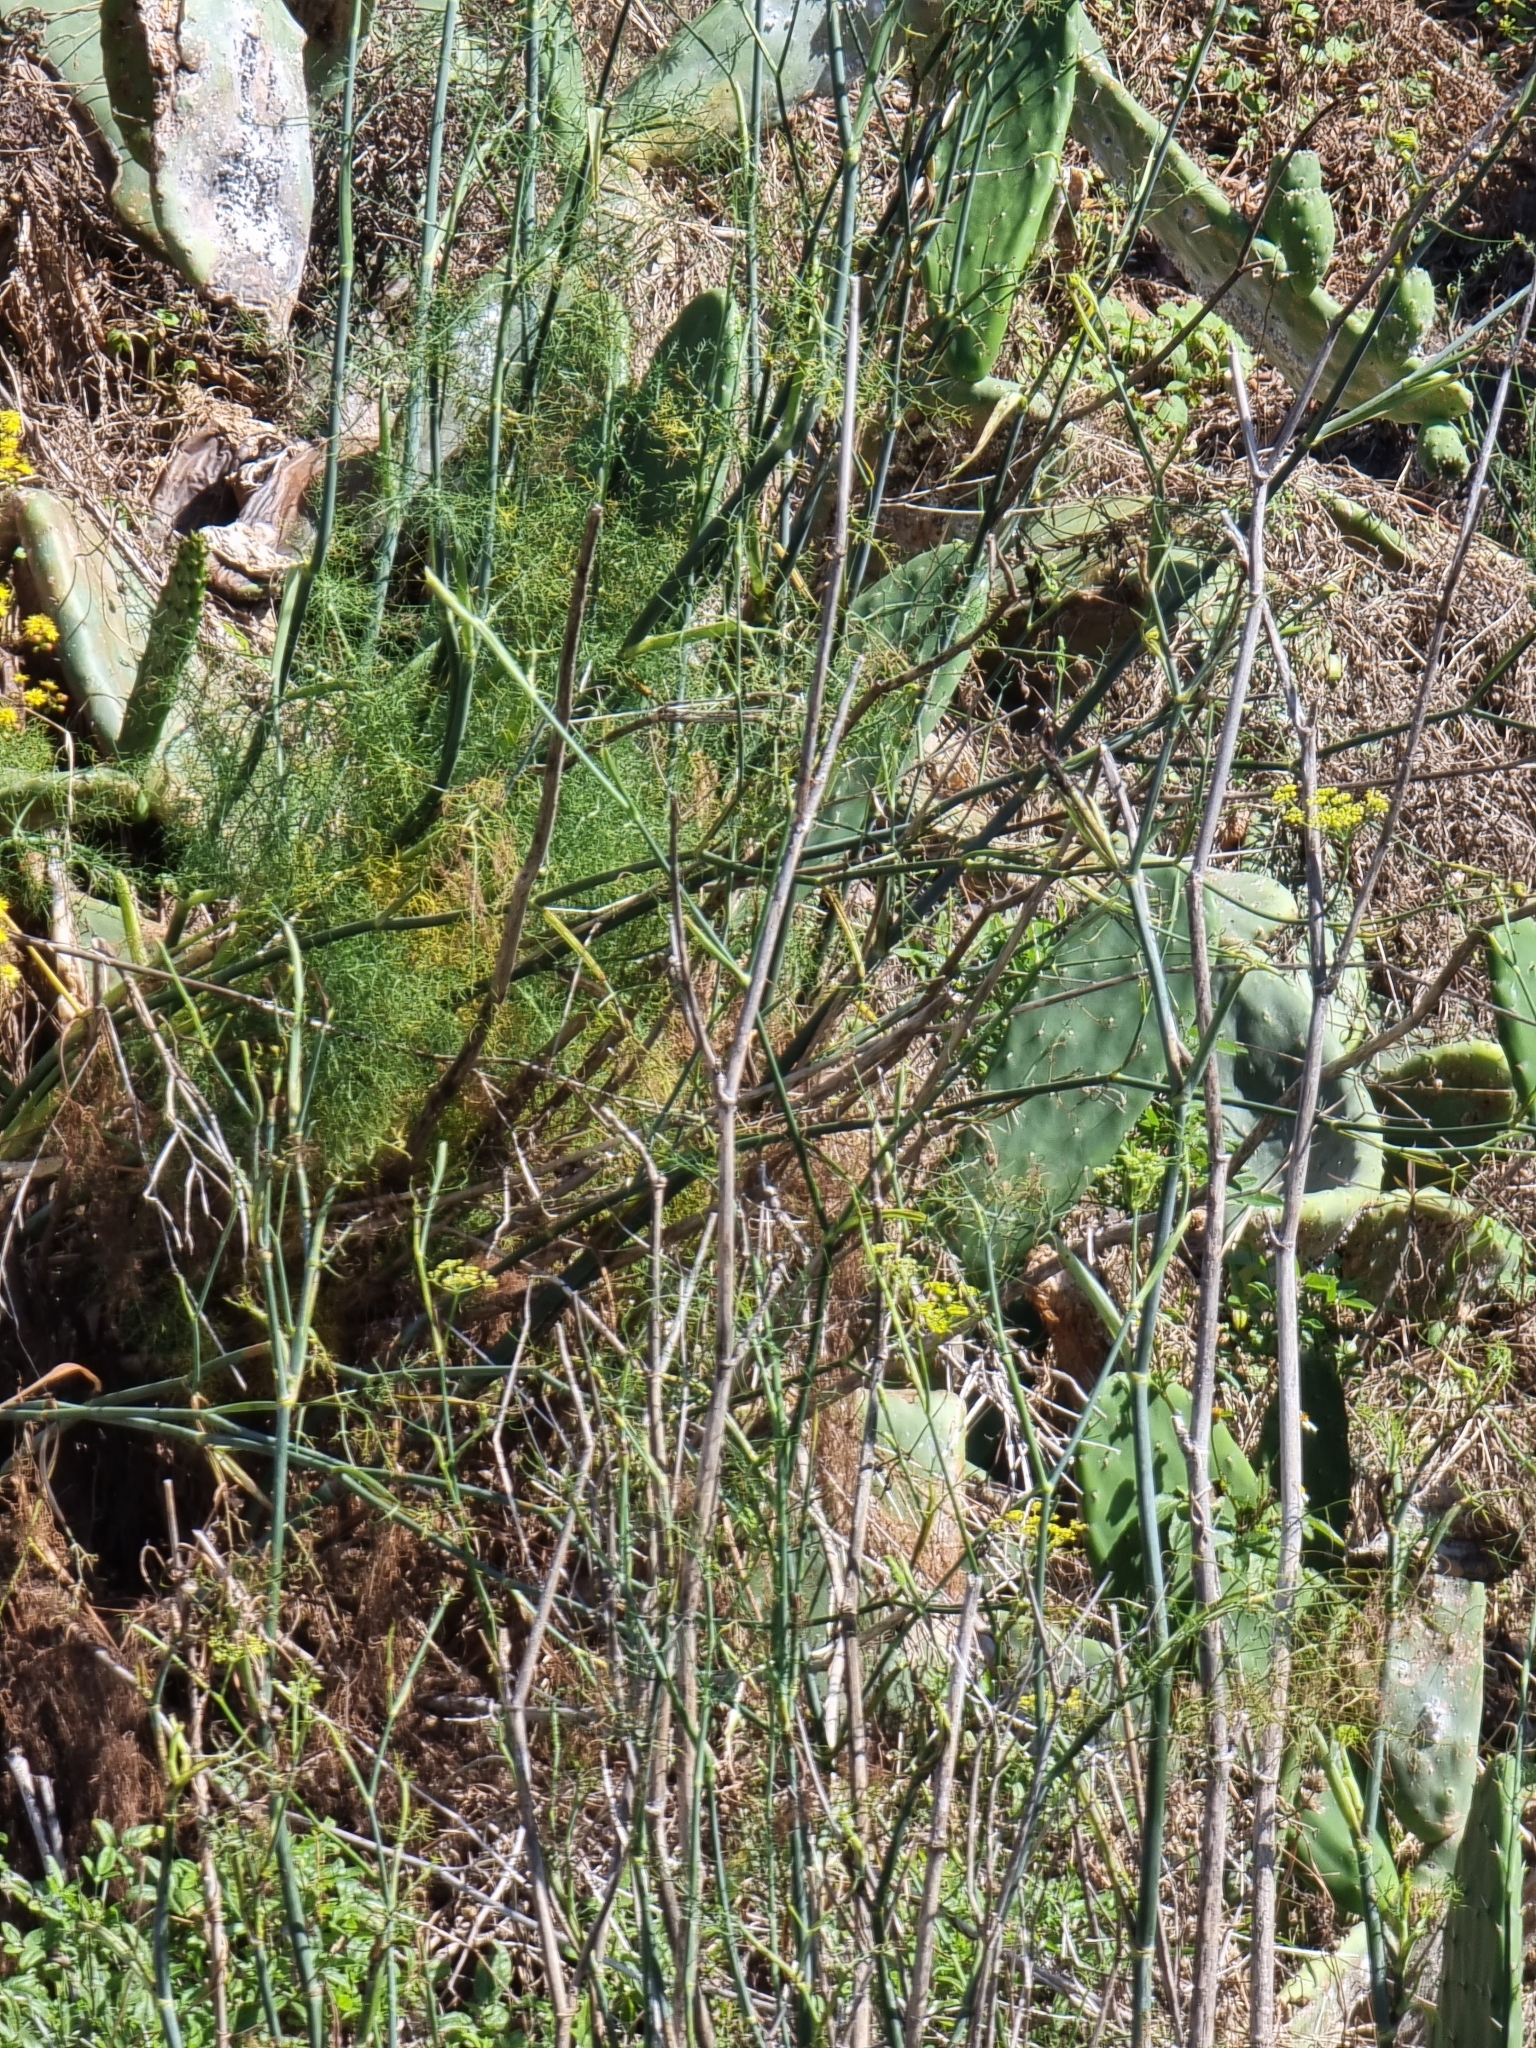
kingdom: Plantae
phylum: Tracheophyta
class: Magnoliopsida
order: Apiales
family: Apiaceae
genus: Foeniculum
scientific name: Foeniculum vulgare
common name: Fennel
